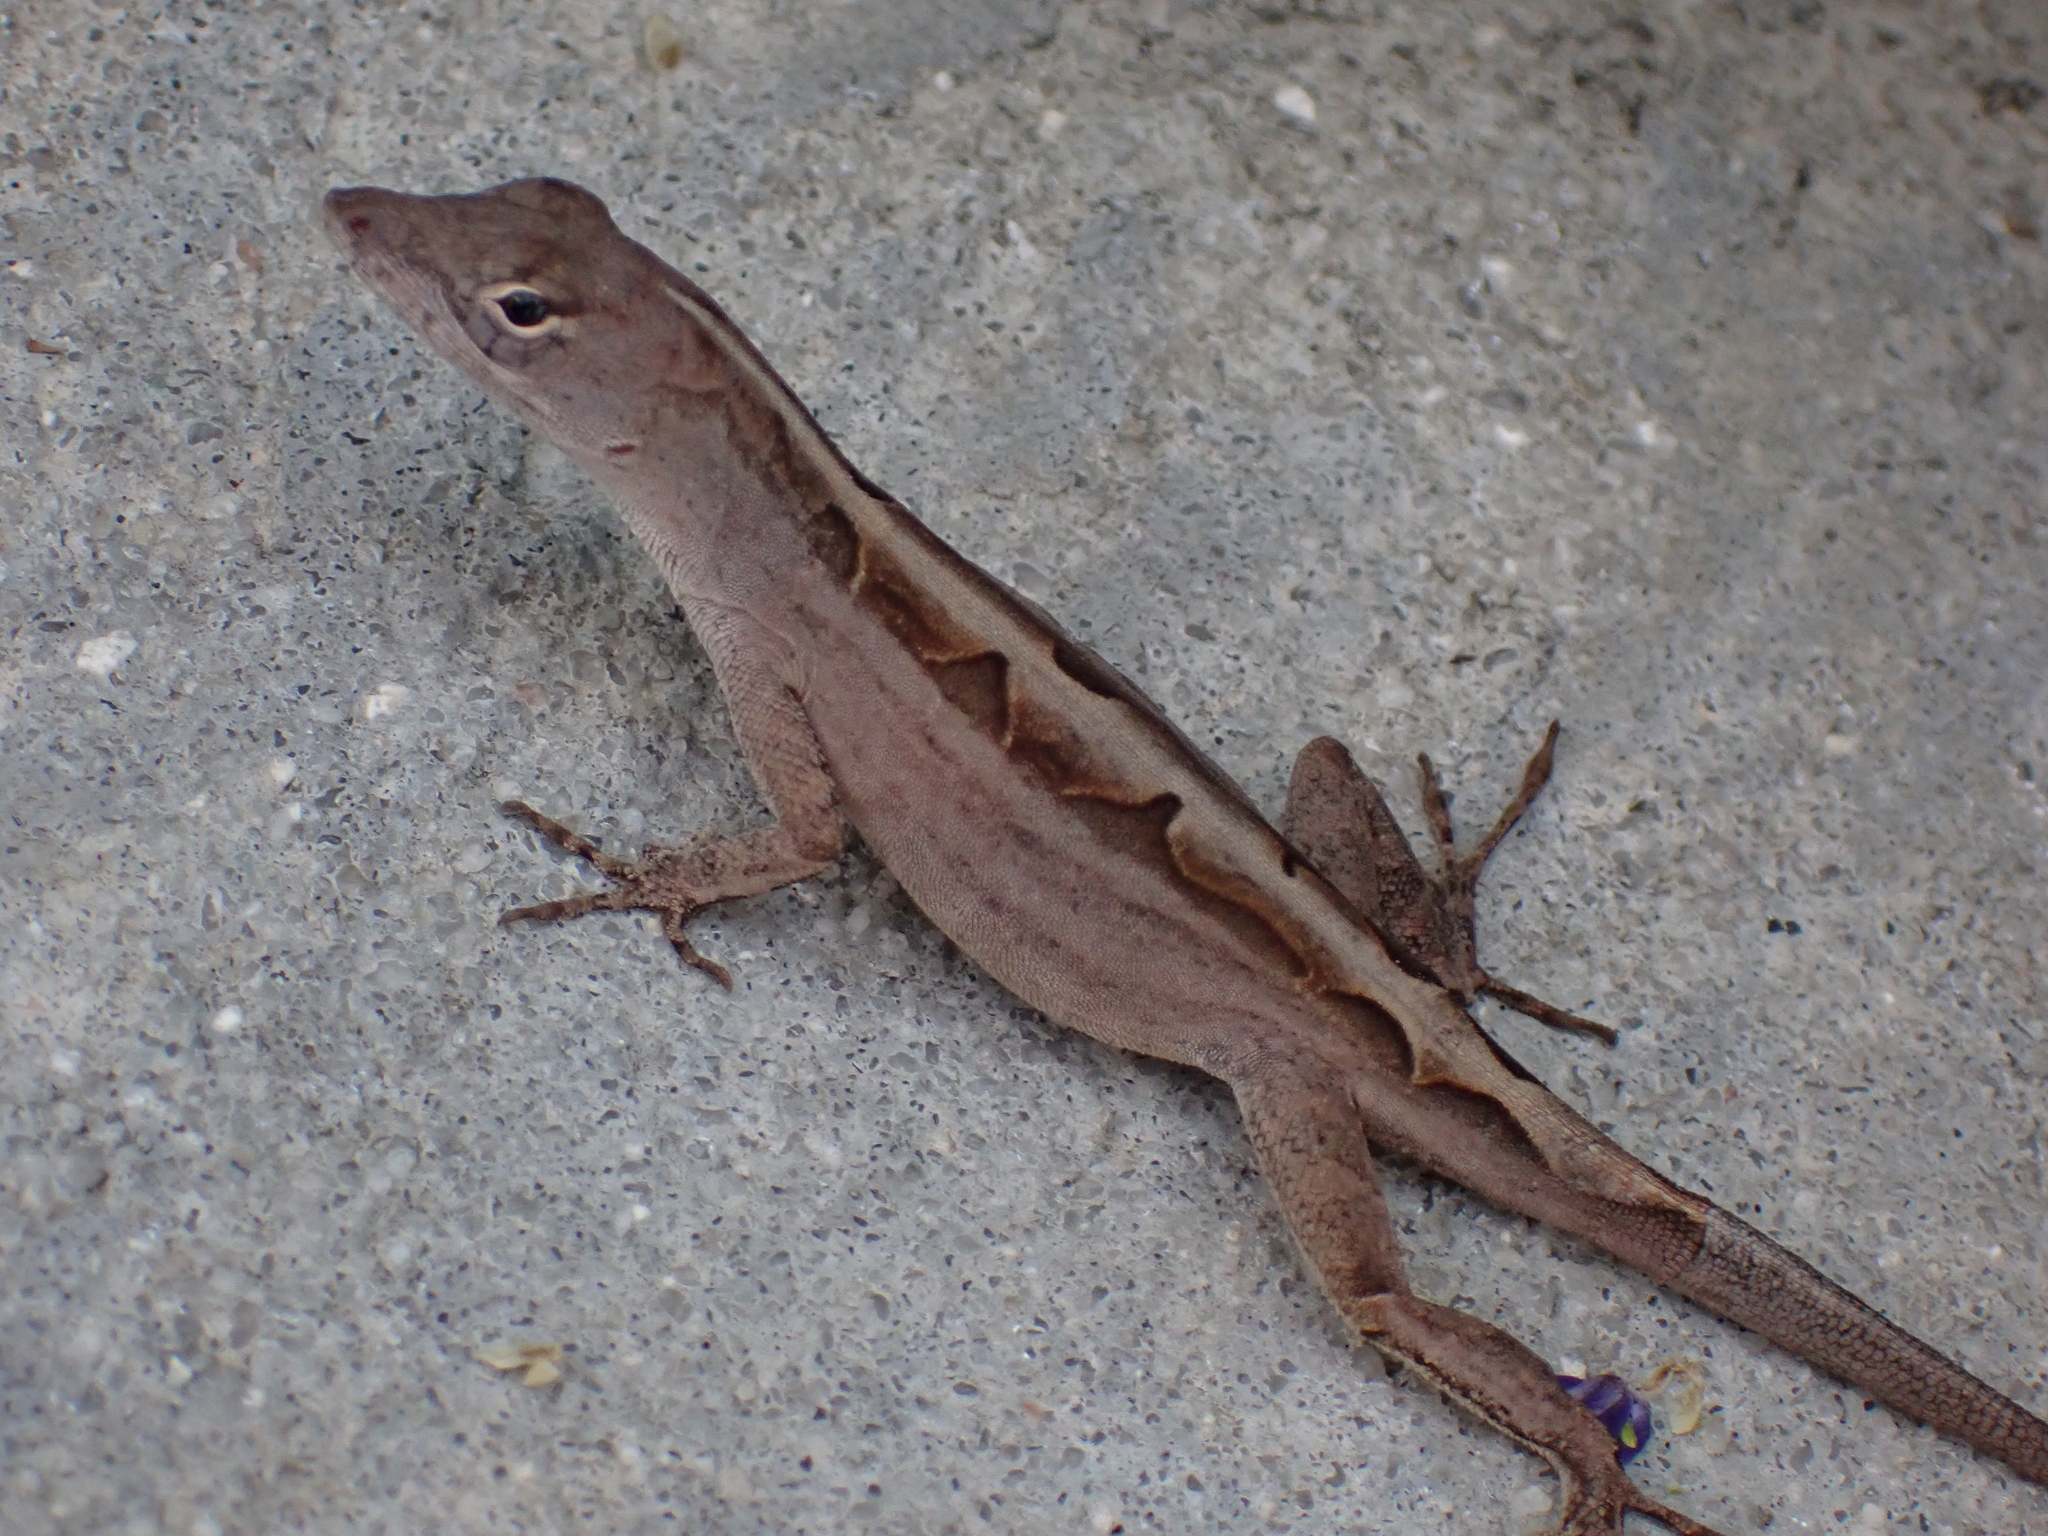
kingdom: Animalia
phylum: Chordata
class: Squamata
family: Dactyloidae
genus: Anolis
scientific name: Anolis sagrei
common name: Brown anole
